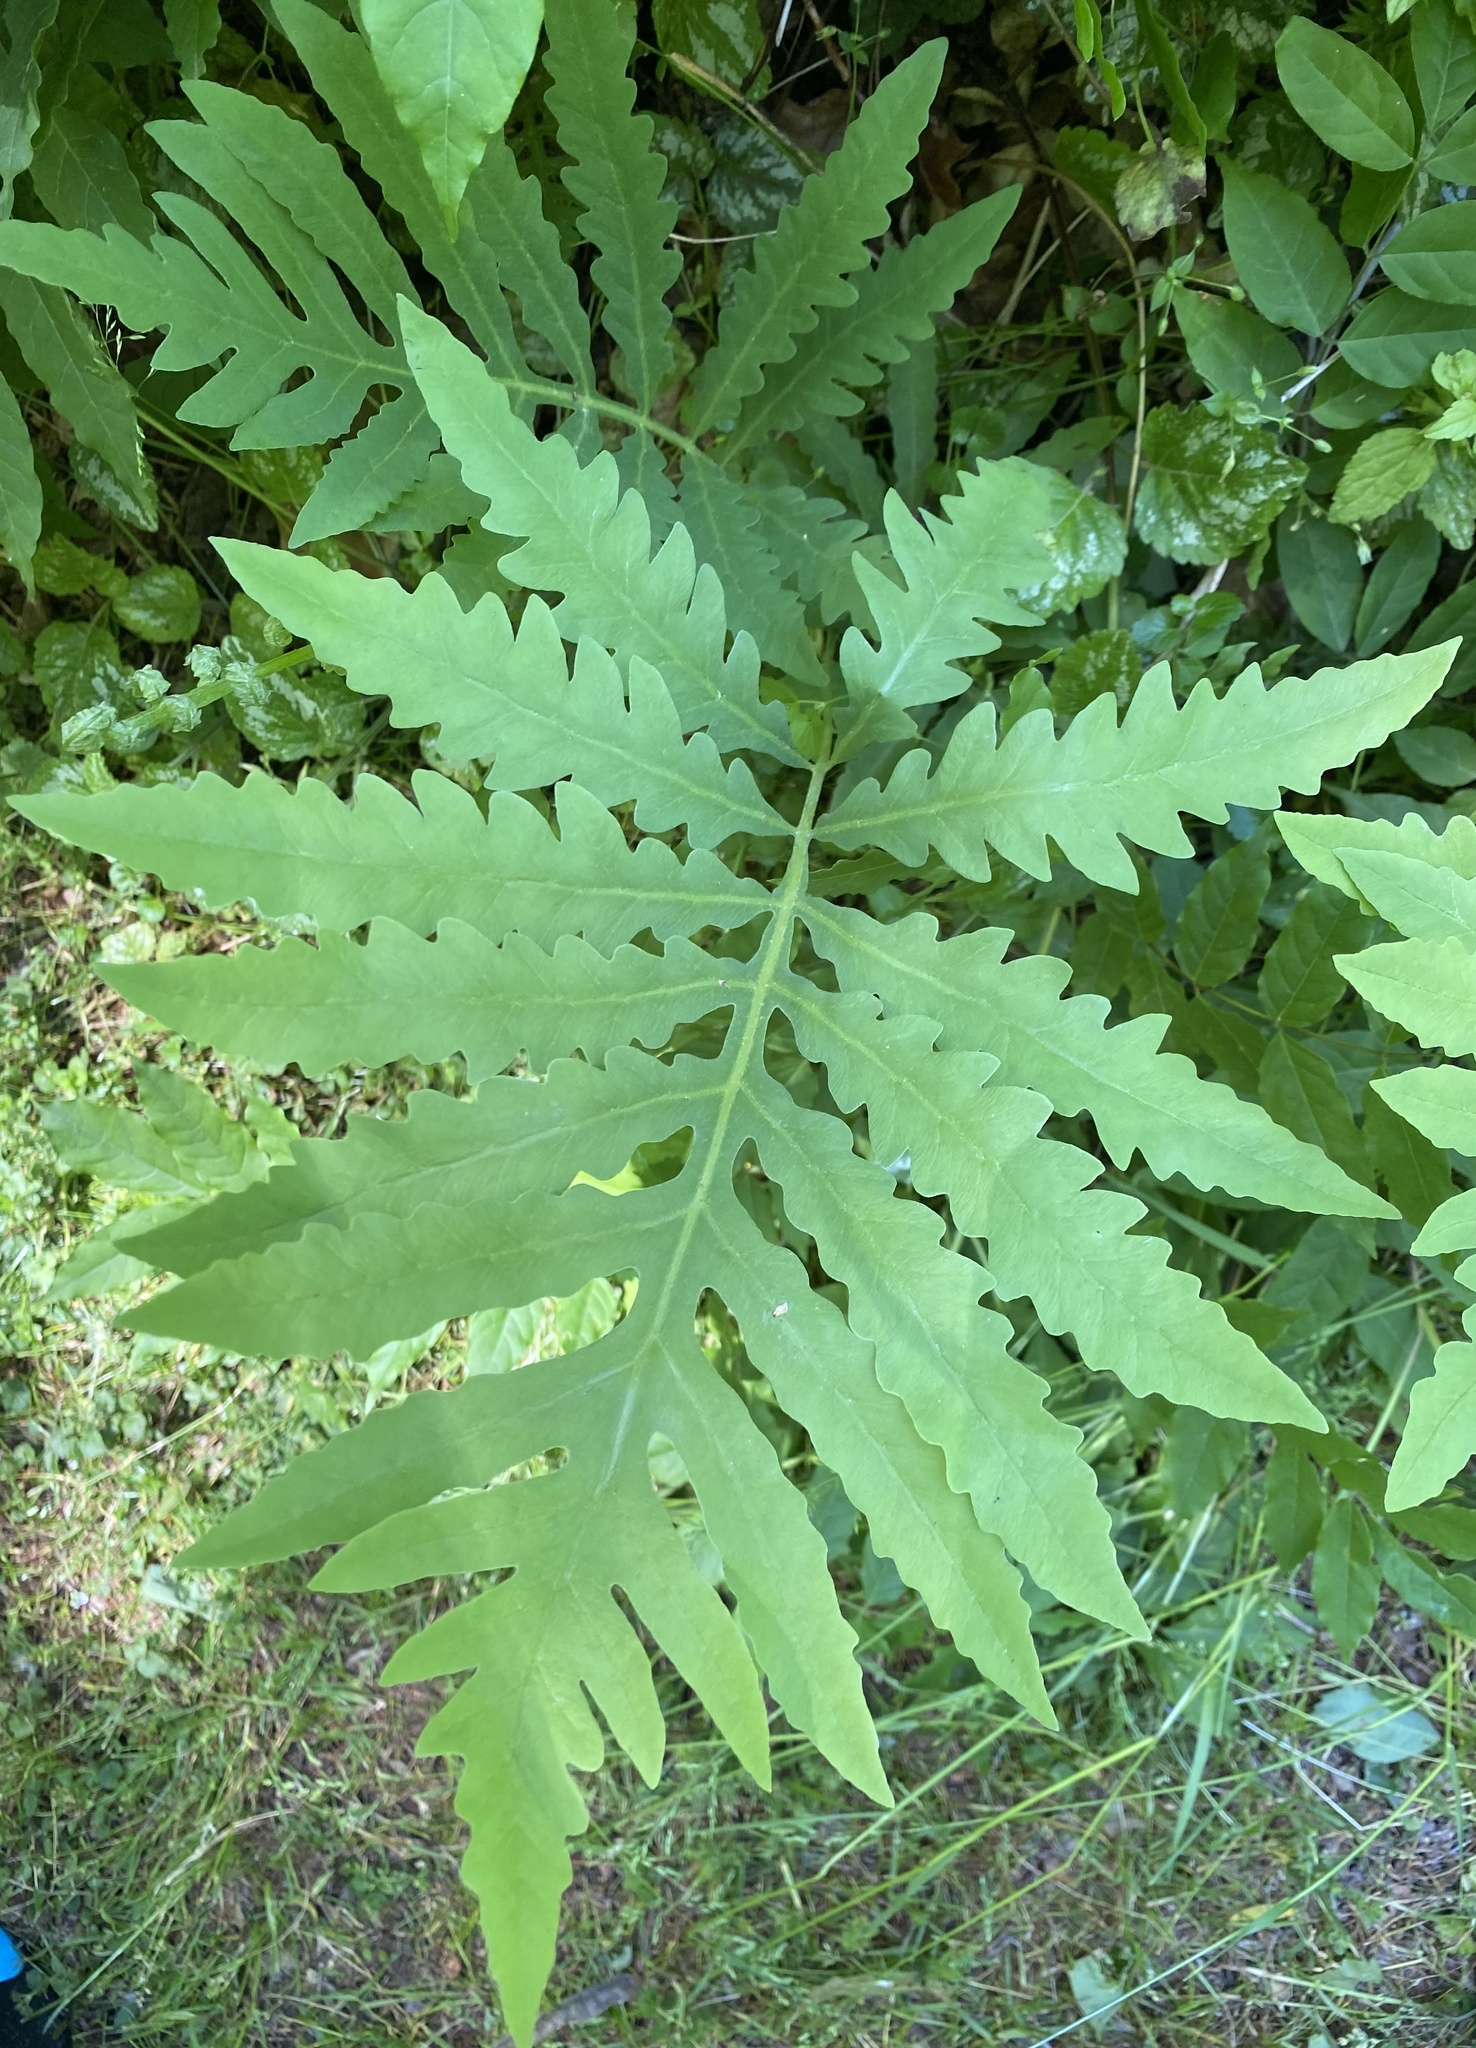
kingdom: Plantae
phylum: Tracheophyta
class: Polypodiopsida
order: Polypodiales
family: Onocleaceae
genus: Onoclea
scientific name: Onoclea sensibilis
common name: Sensitive fern
